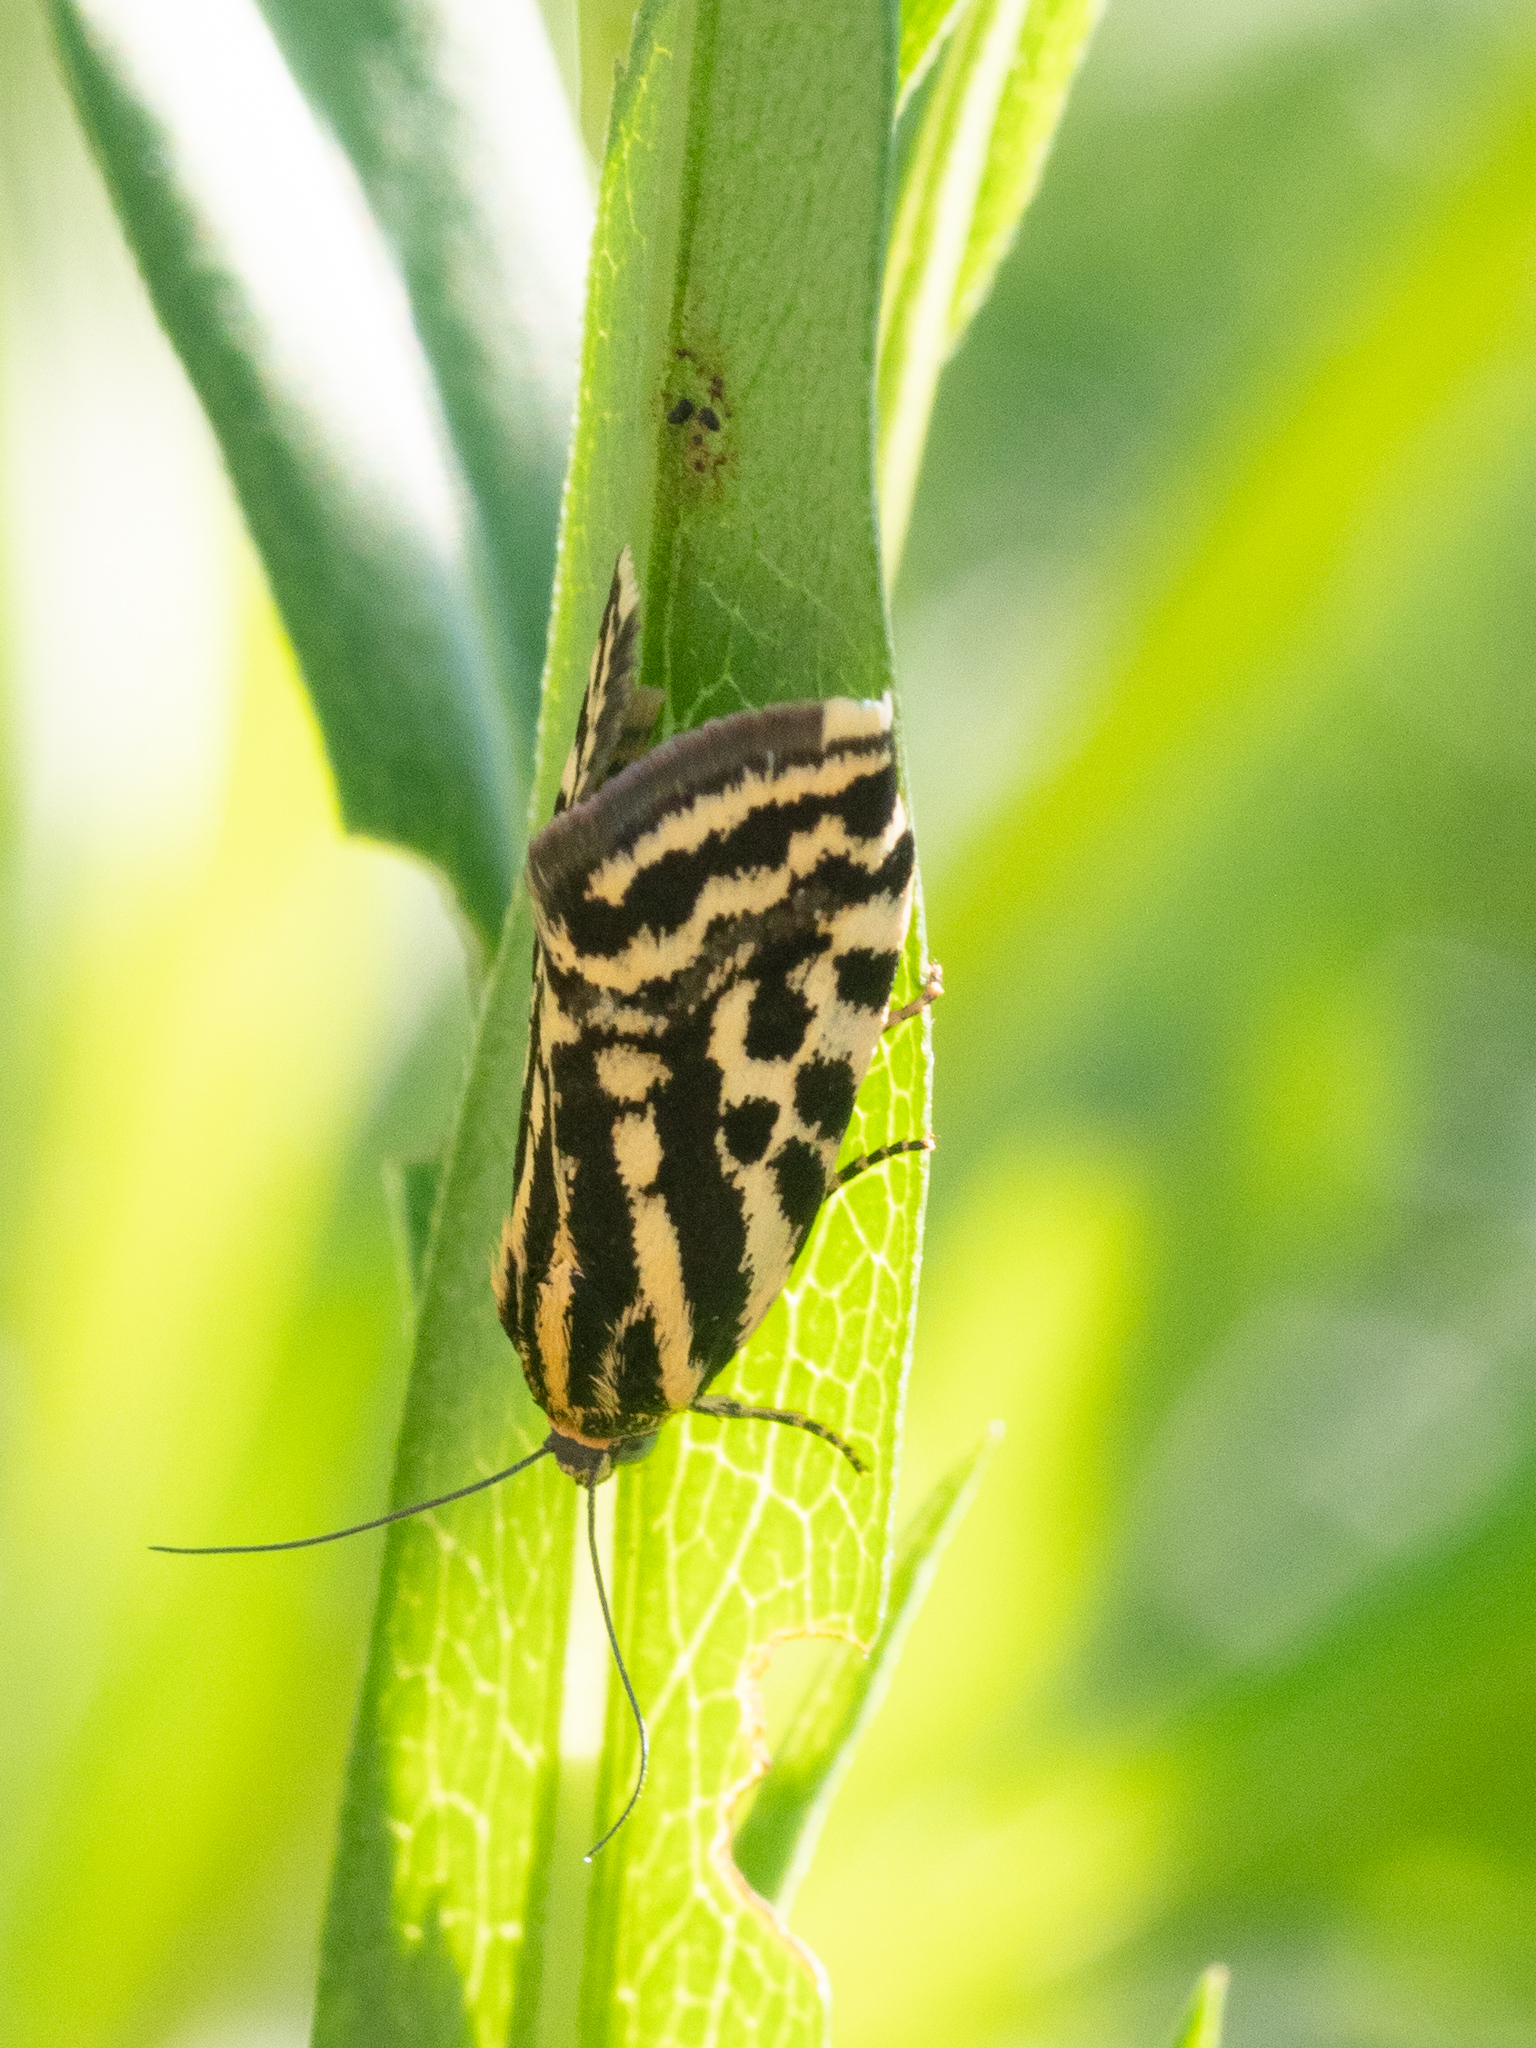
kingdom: Animalia
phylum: Arthropoda
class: Insecta
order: Lepidoptera
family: Noctuidae
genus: Acontia
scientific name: Acontia trabealis
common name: Spotted sulphur
